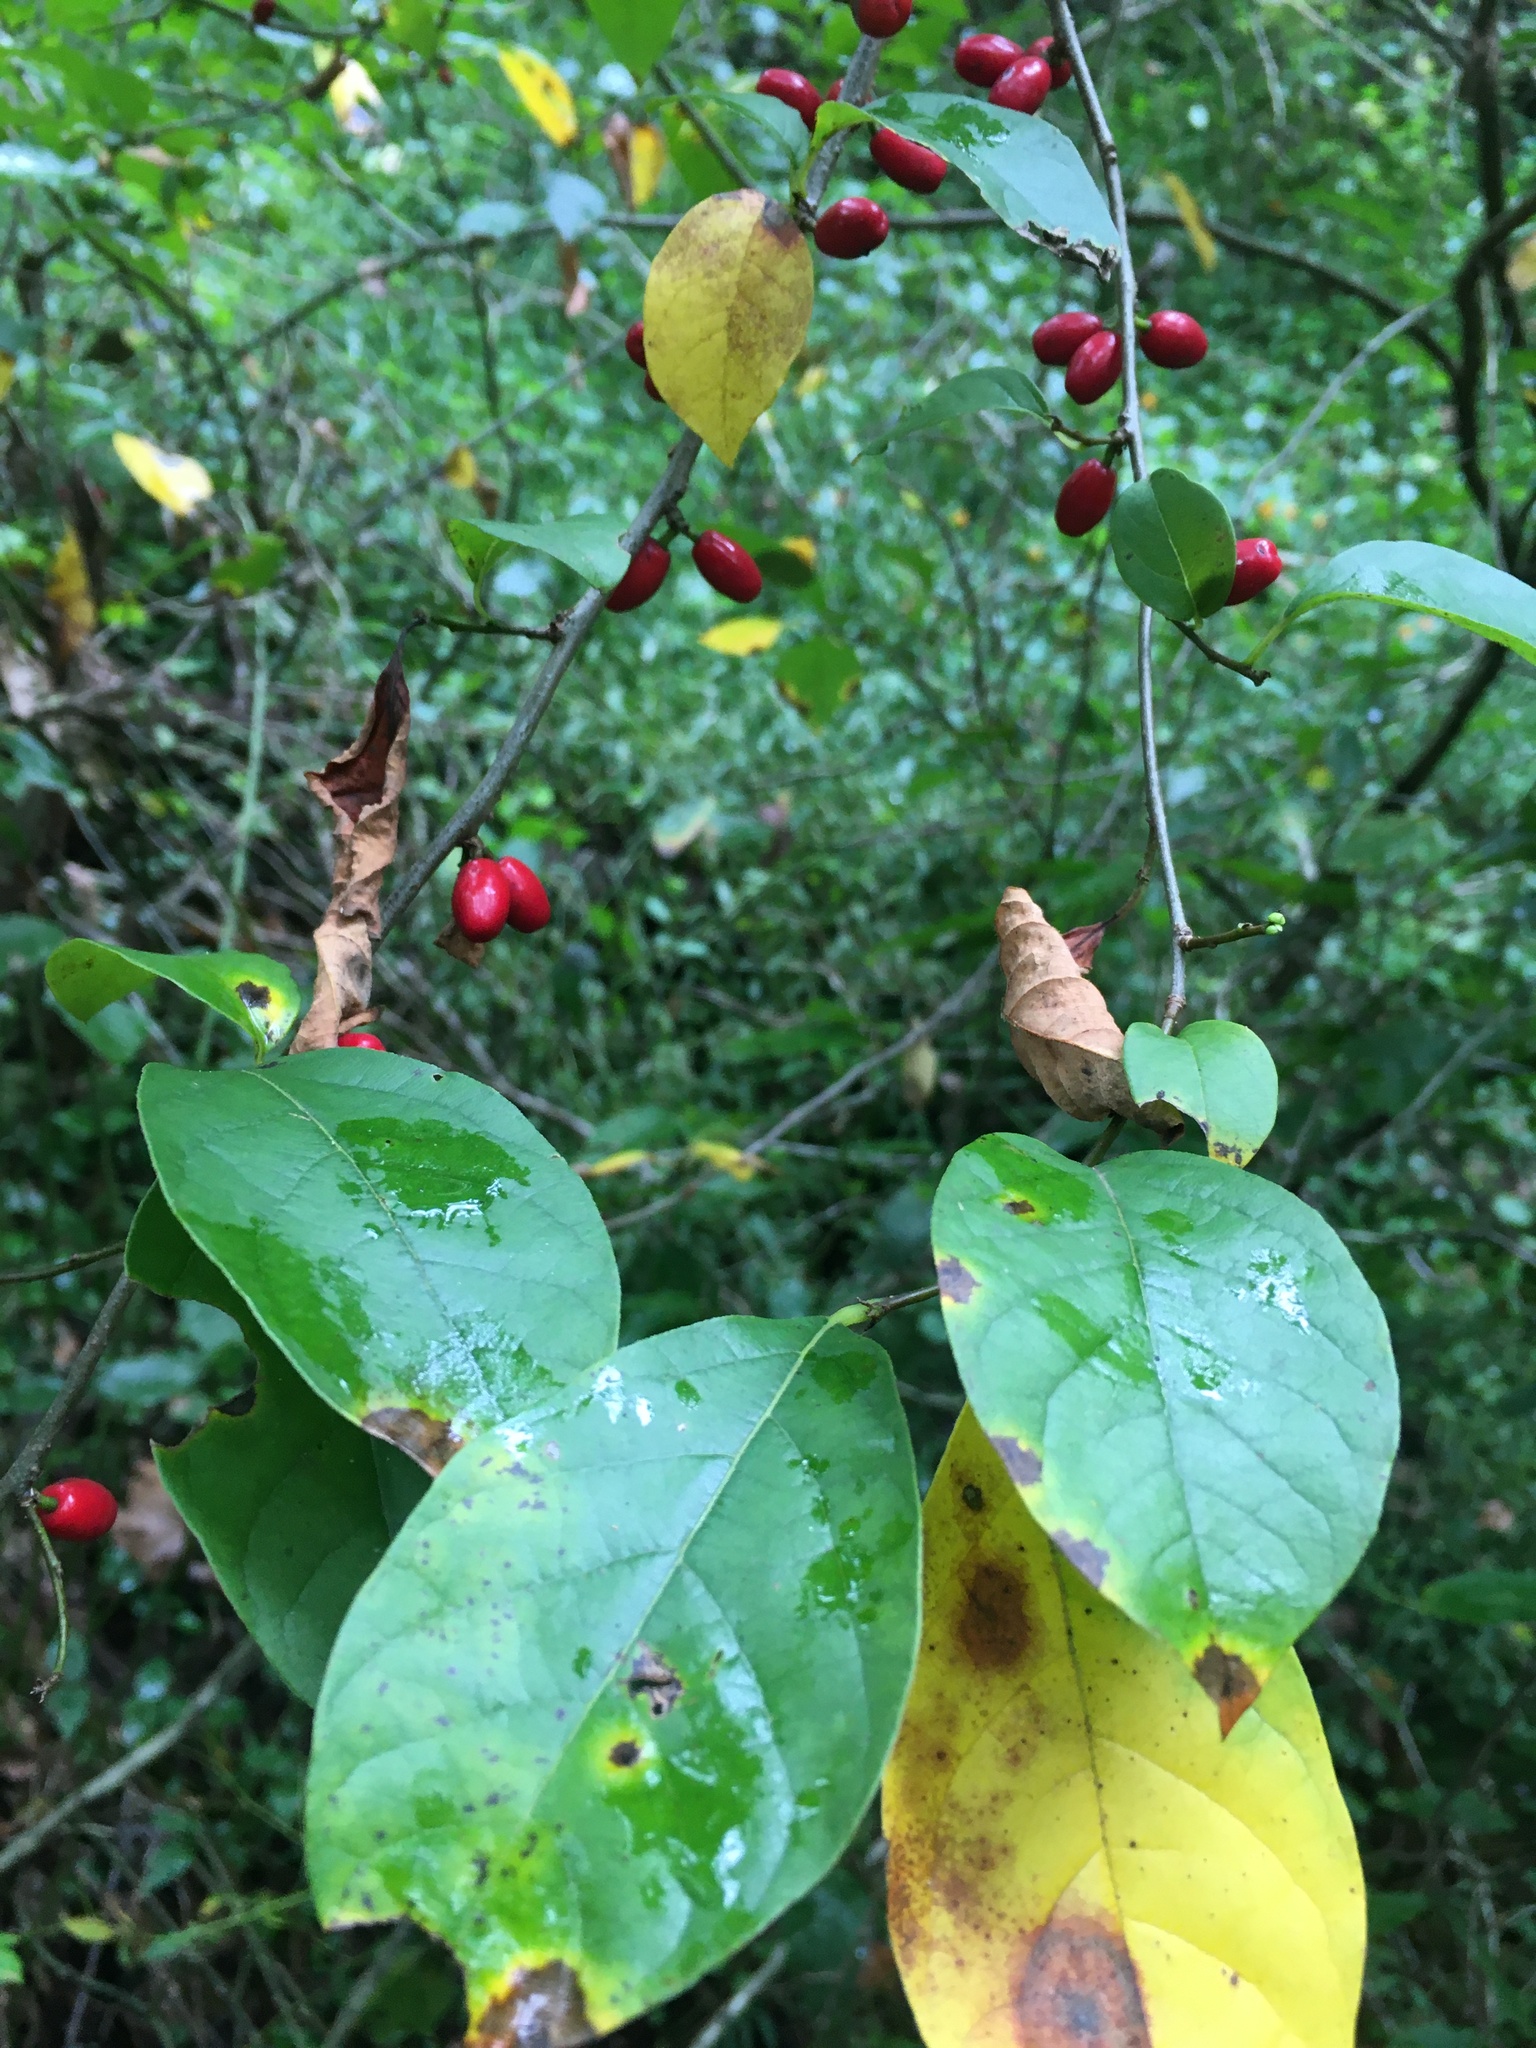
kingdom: Plantae
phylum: Tracheophyta
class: Magnoliopsida
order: Laurales
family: Lauraceae
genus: Lindera
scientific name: Lindera benzoin
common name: Spicebush
